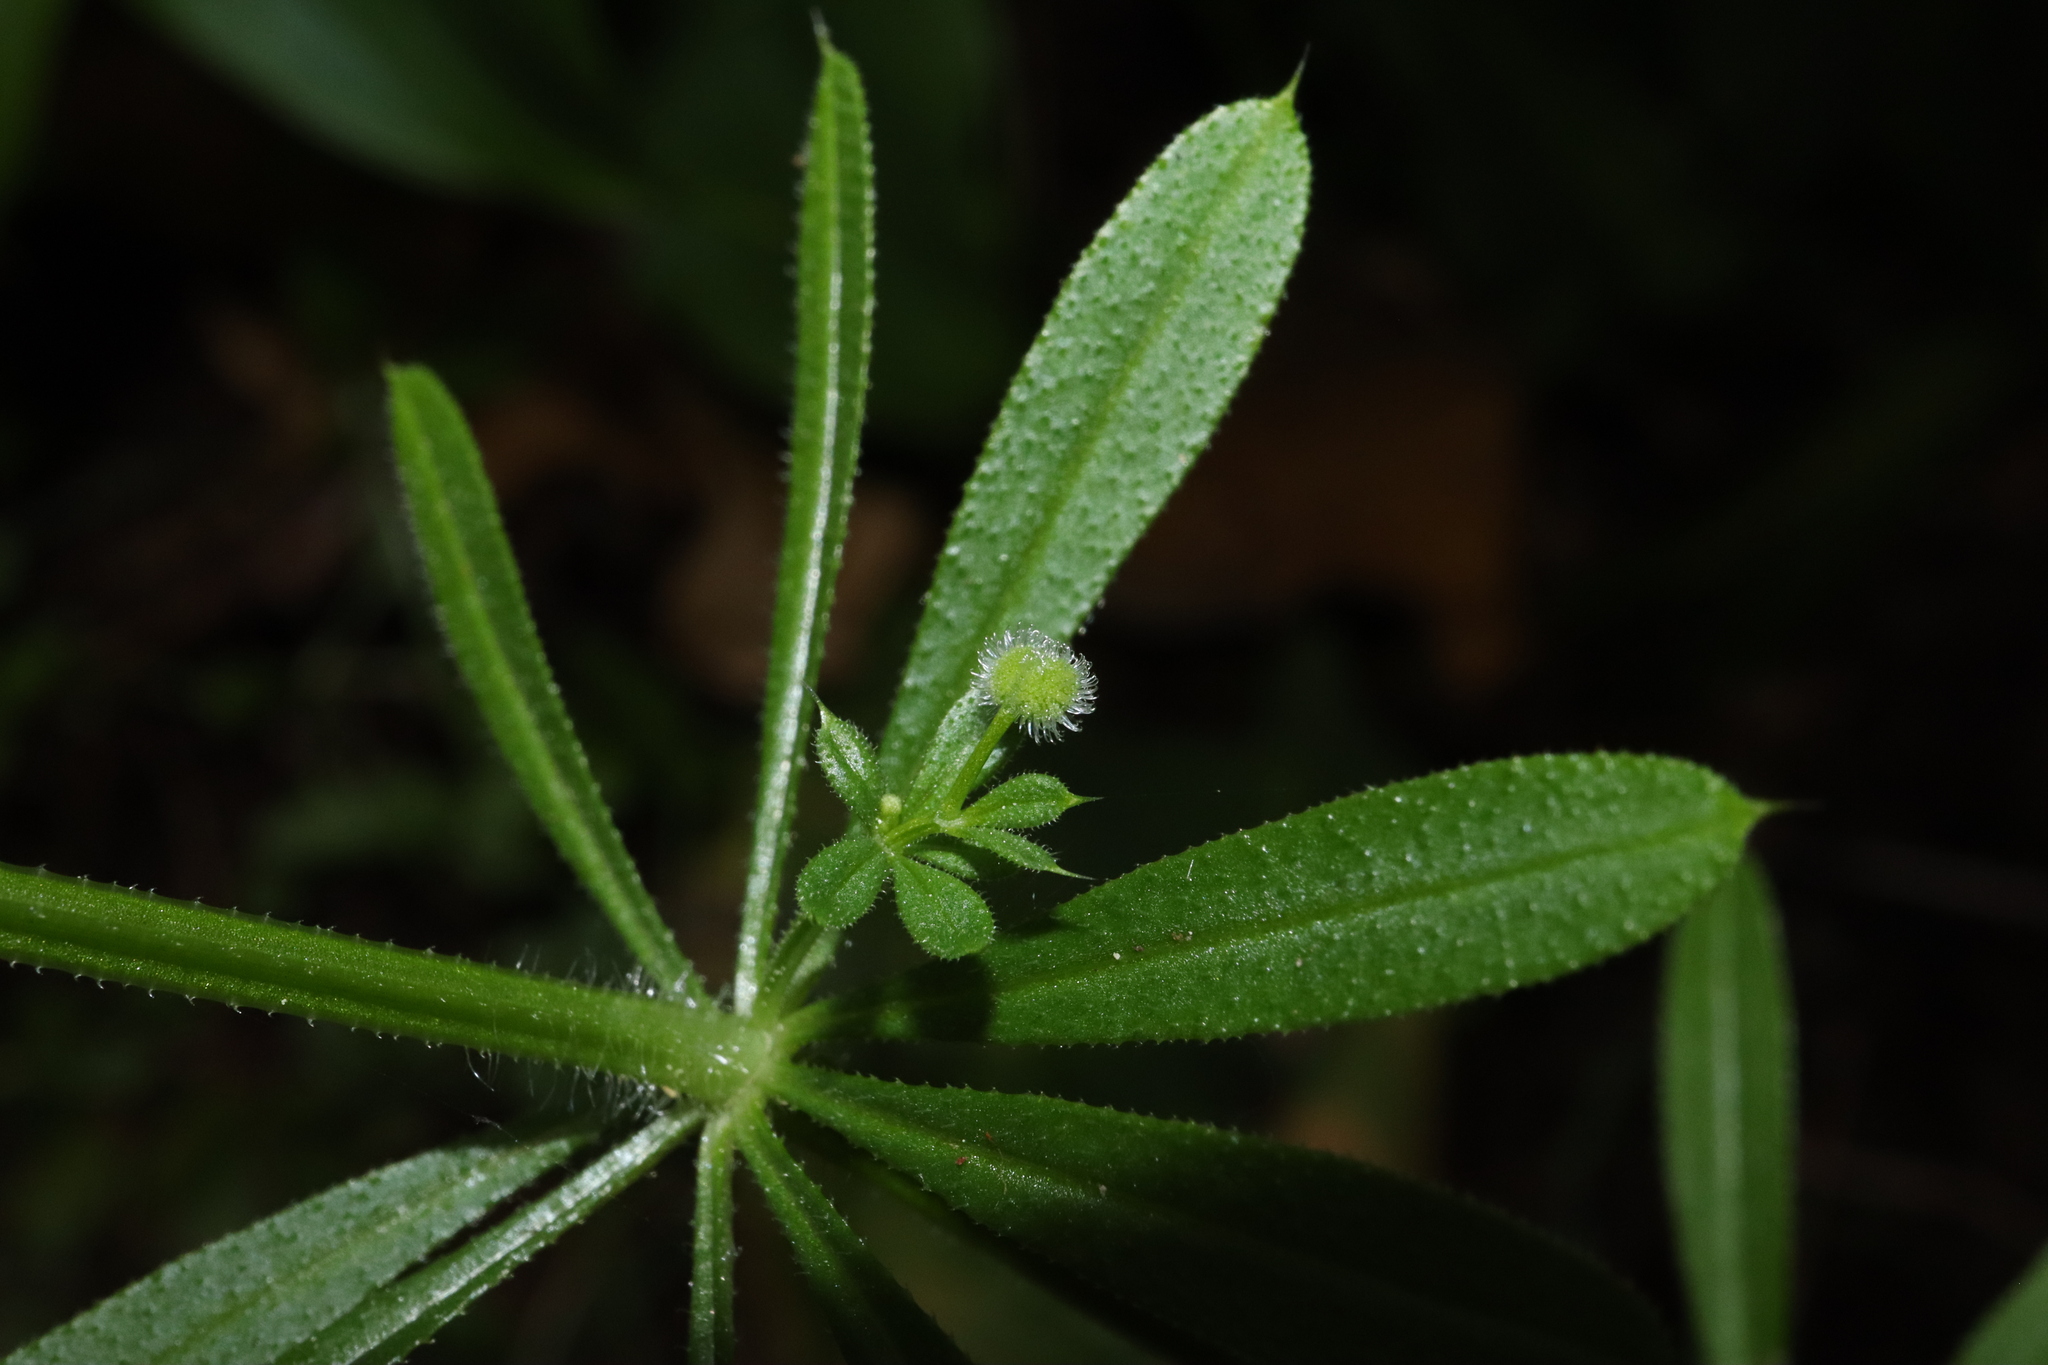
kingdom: Plantae
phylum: Tracheophyta
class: Magnoliopsida
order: Gentianales
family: Rubiaceae
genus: Galium
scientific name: Galium aparine
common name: Cleavers
